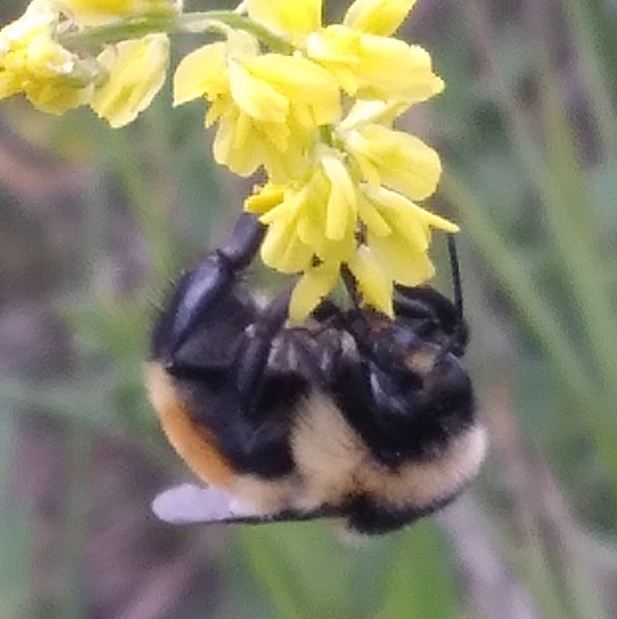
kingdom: Animalia
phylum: Arthropoda
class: Insecta
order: Hymenoptera
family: Apidae
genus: Bombus
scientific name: Bombus ternarius
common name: Tri-colored bumble bee
